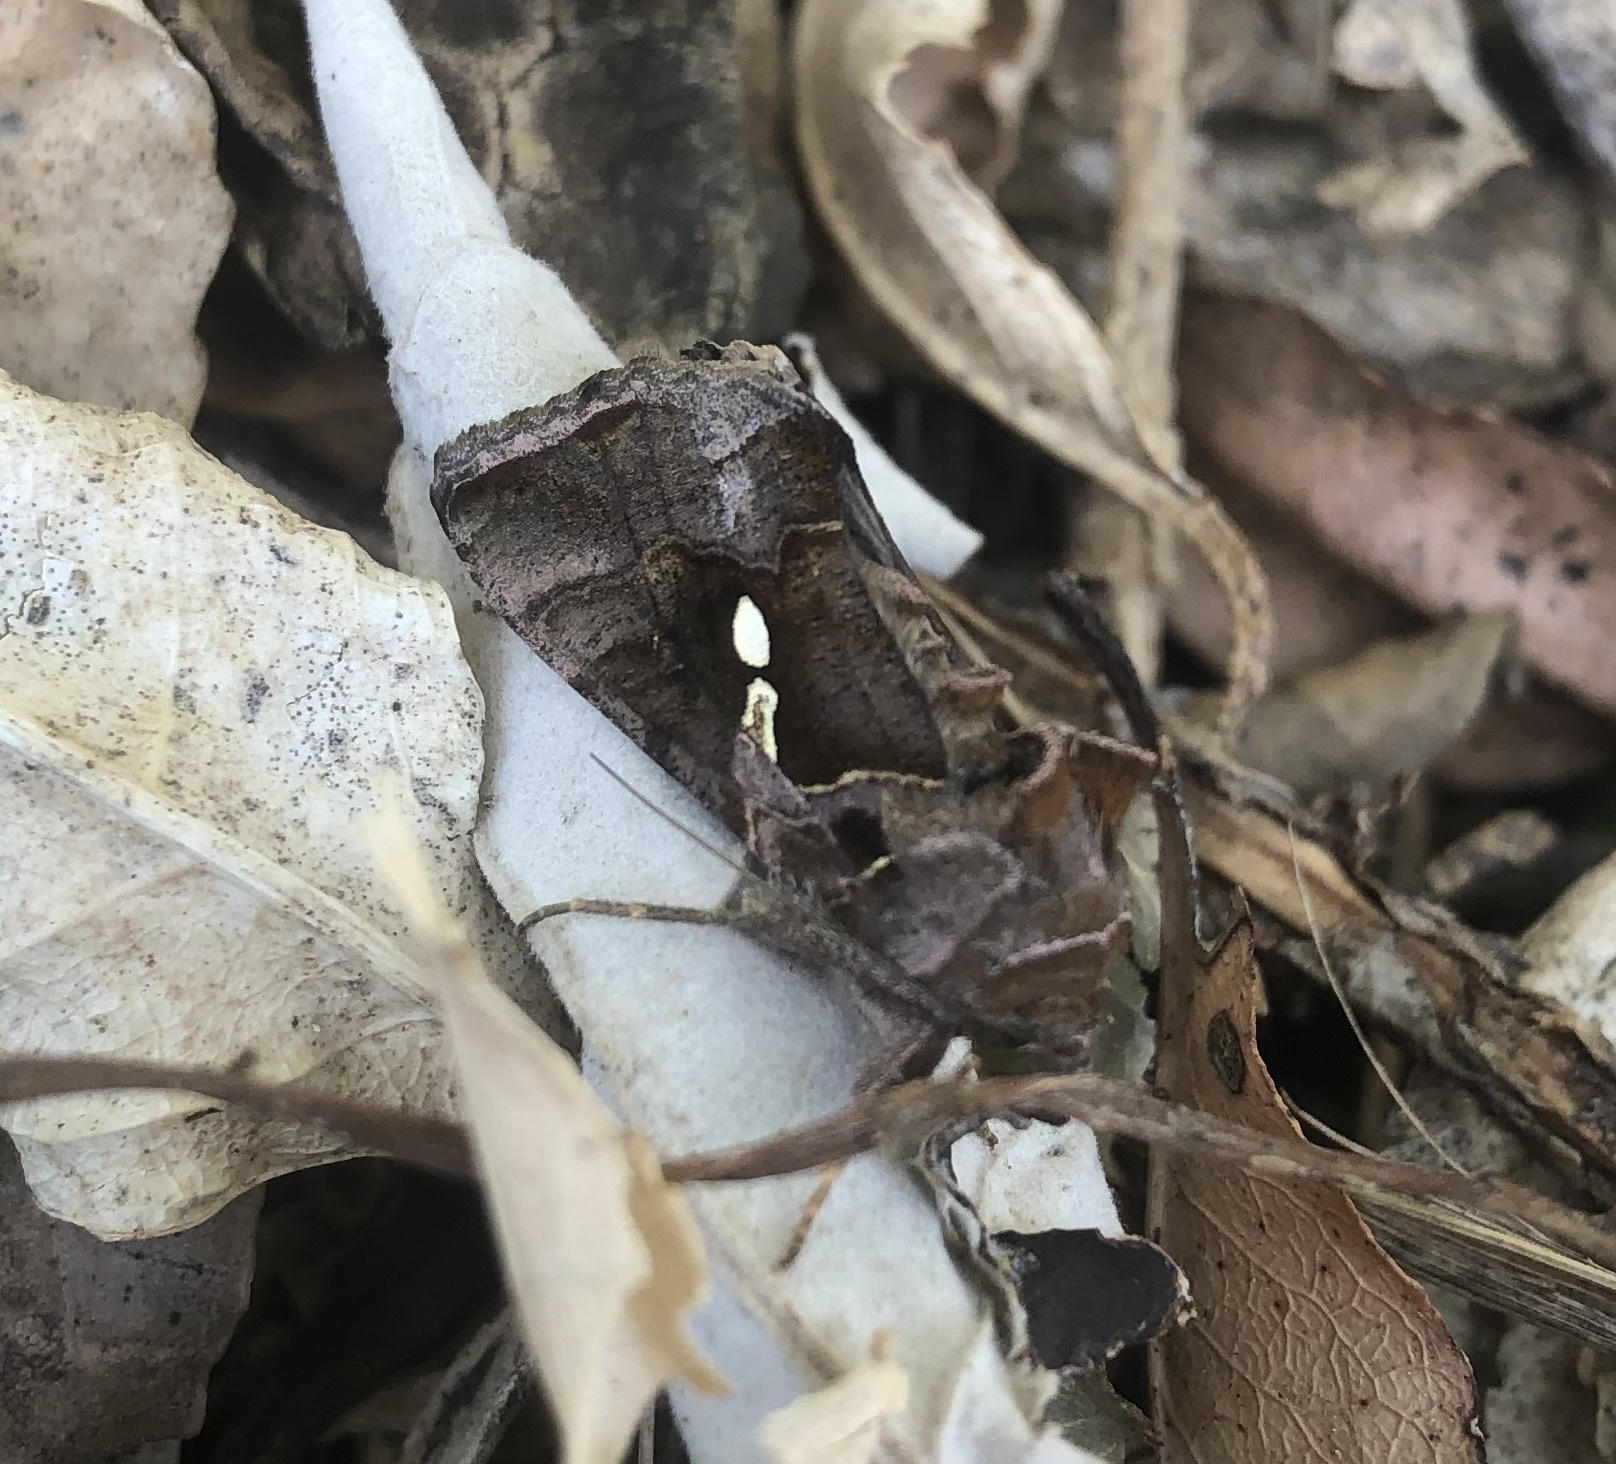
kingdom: Animalia
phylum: Arthropoda
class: Insecta
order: Lepidoptera
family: Noctuidae
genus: Chrysodeixis
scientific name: Chrysodeixis eriosoma
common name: Green garden looper
